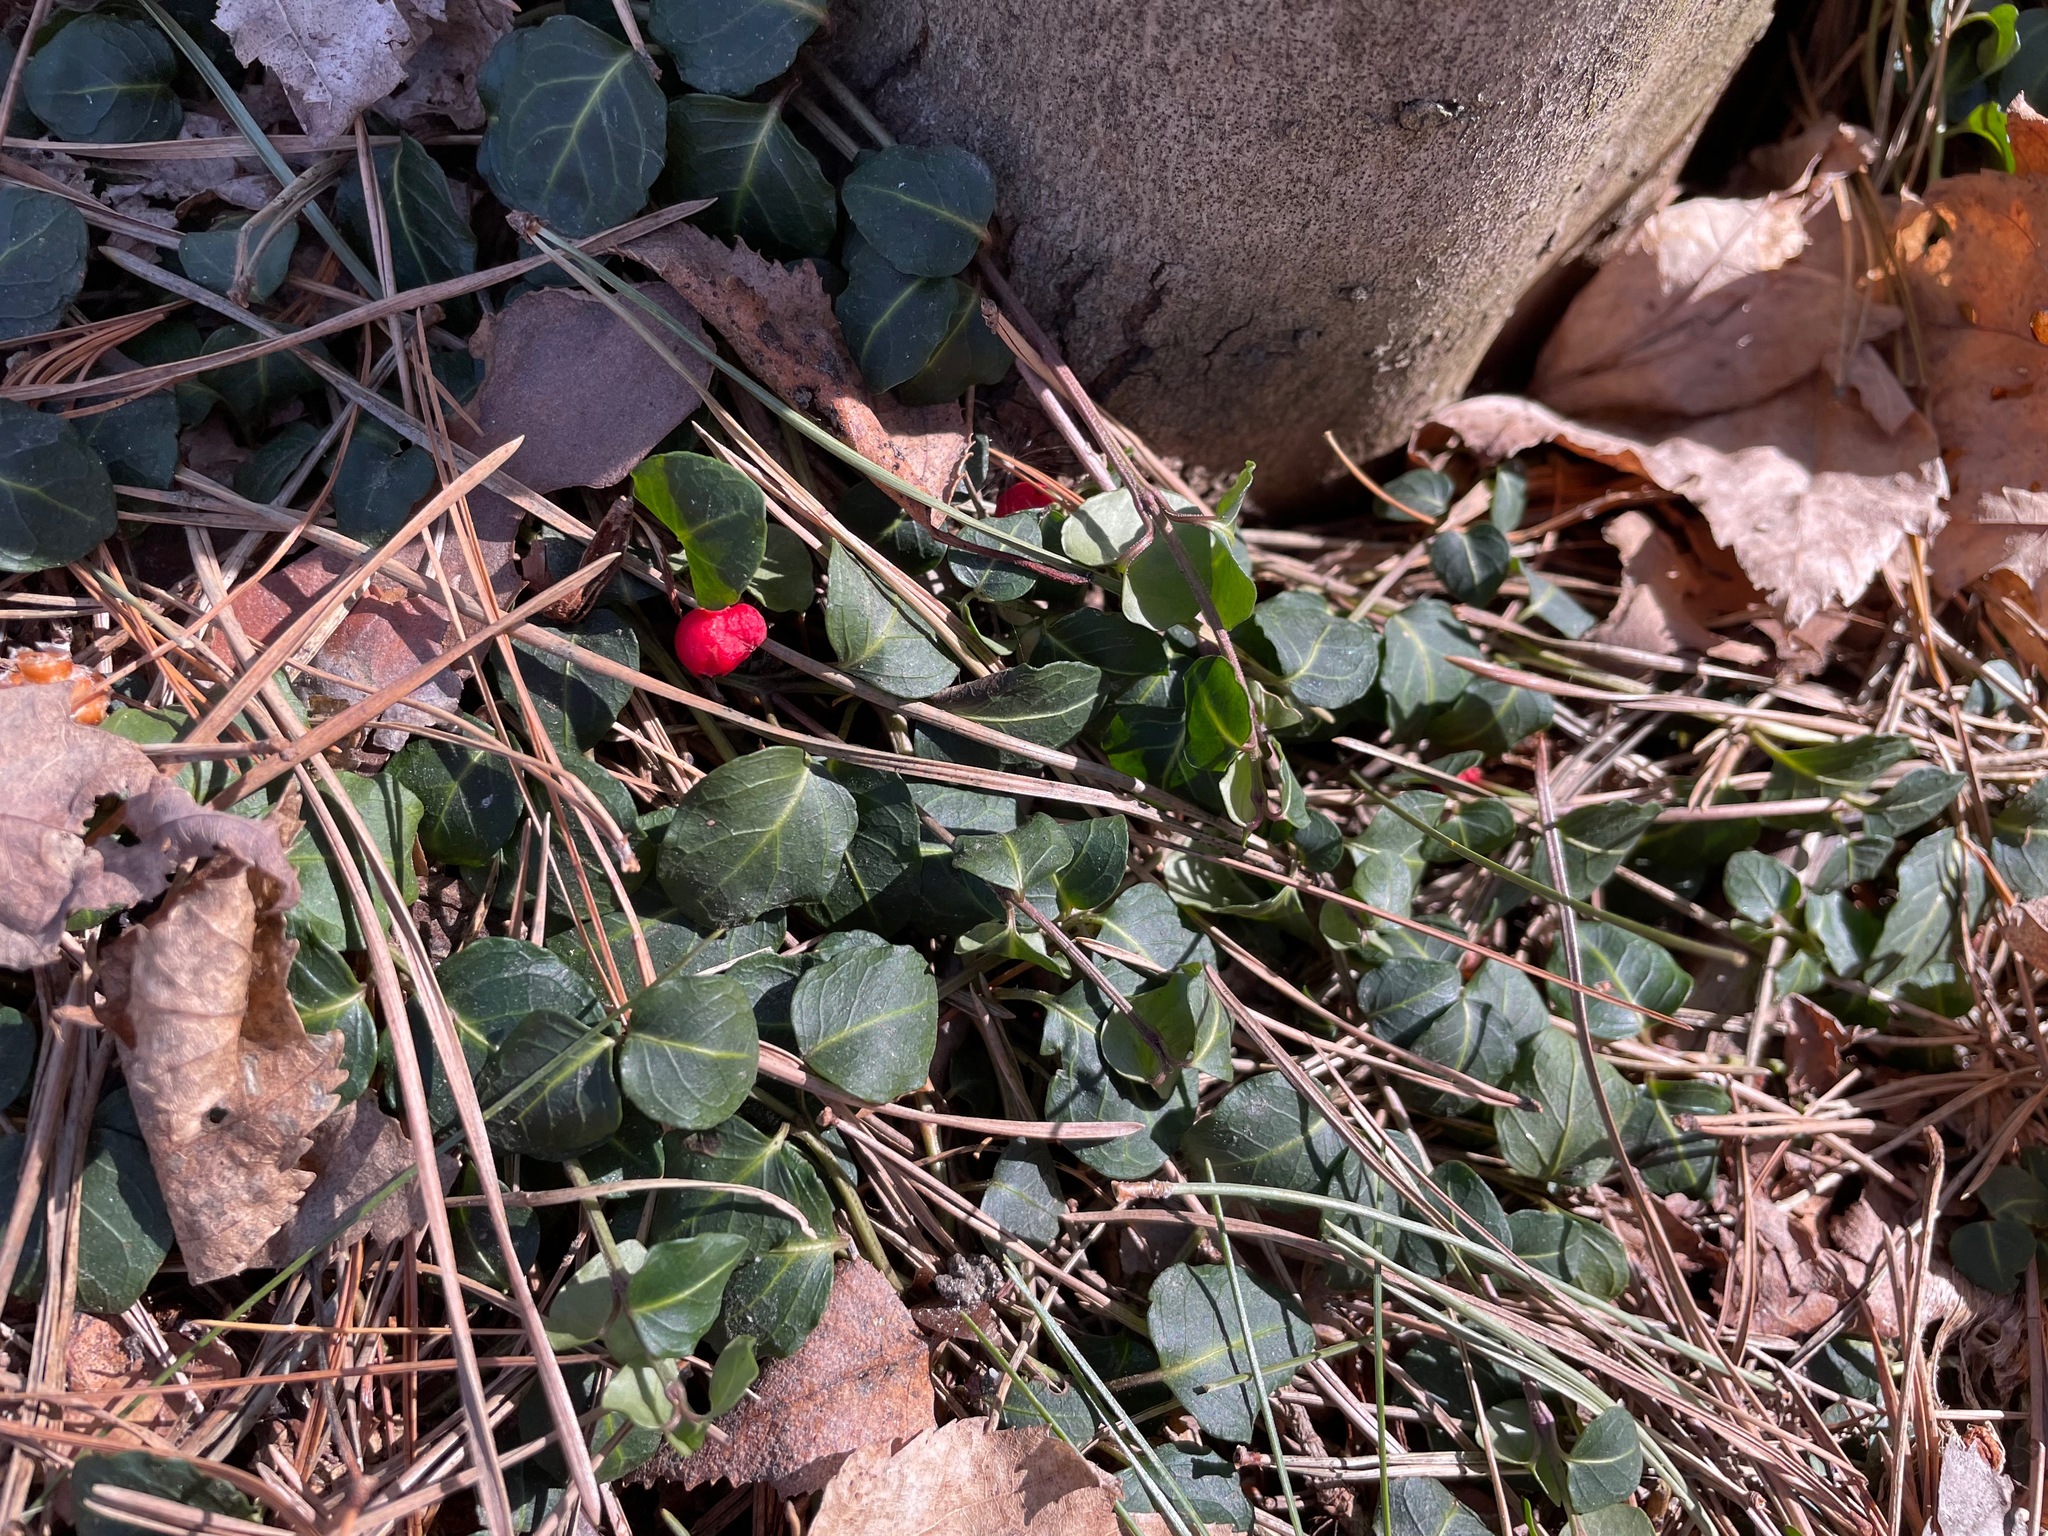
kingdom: Plantae
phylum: Tracheophyta
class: Magnoliopsida
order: Gentianales
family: Rubiaceae
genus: Mitchella
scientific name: Mitchella repens
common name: Partridge-berry
